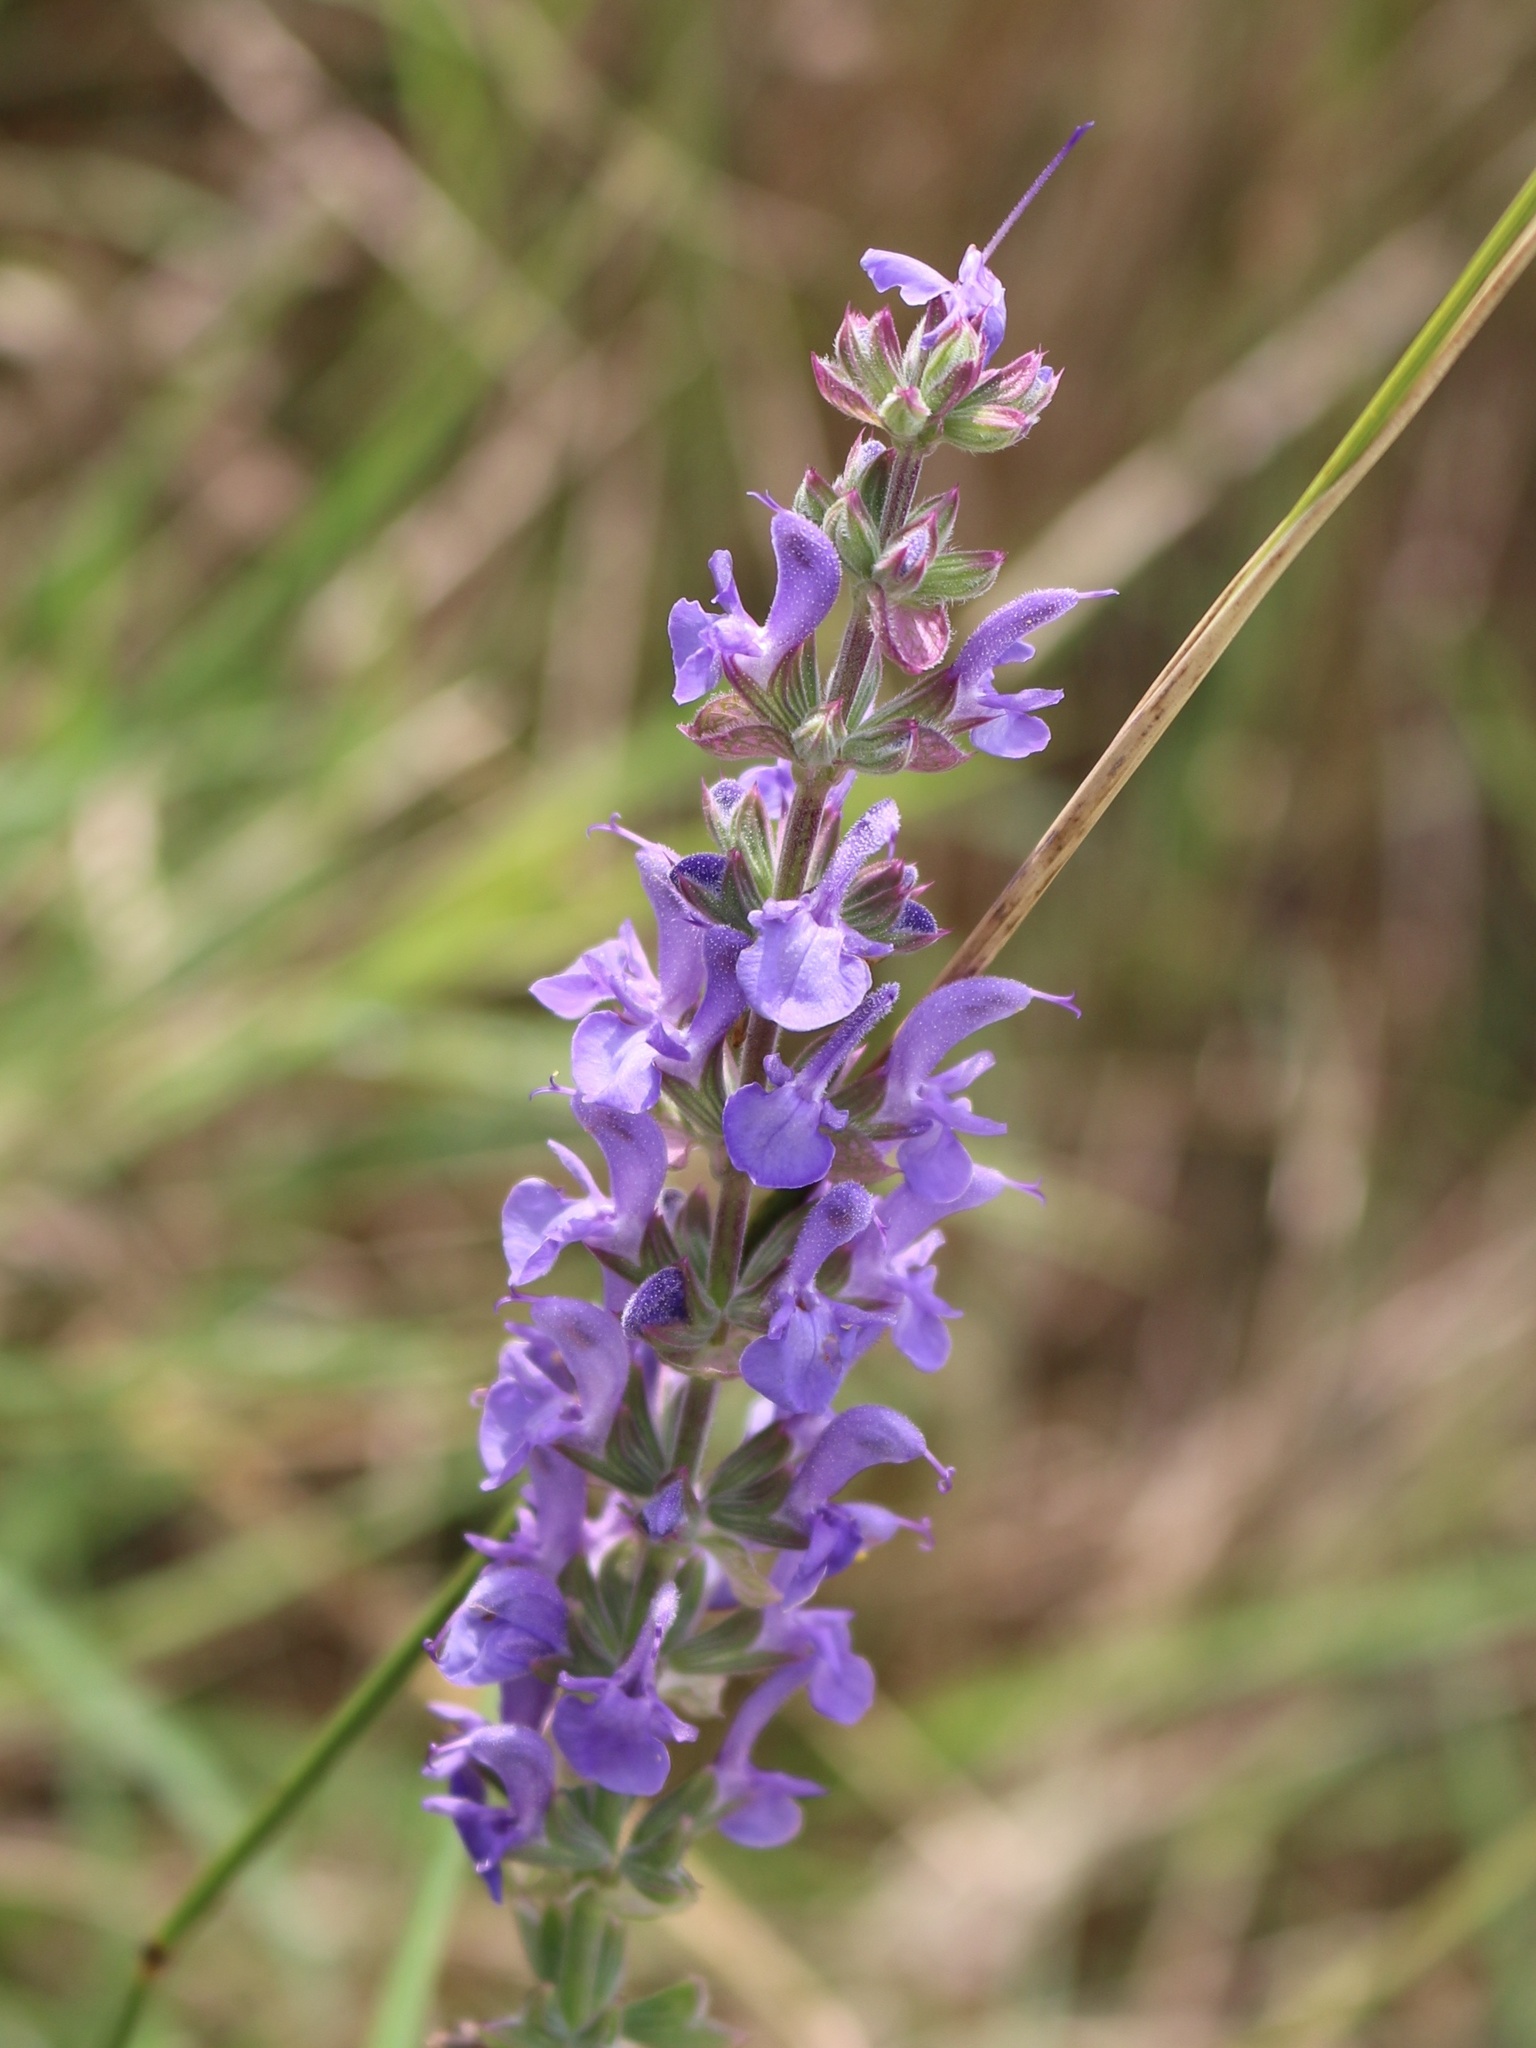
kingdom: Plantae
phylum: Tracheophyta
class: Magnoliopsida
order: Lamiales
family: Lamiaceae
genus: Salvia
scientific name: Salvia nemorosa
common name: Balkan clary
